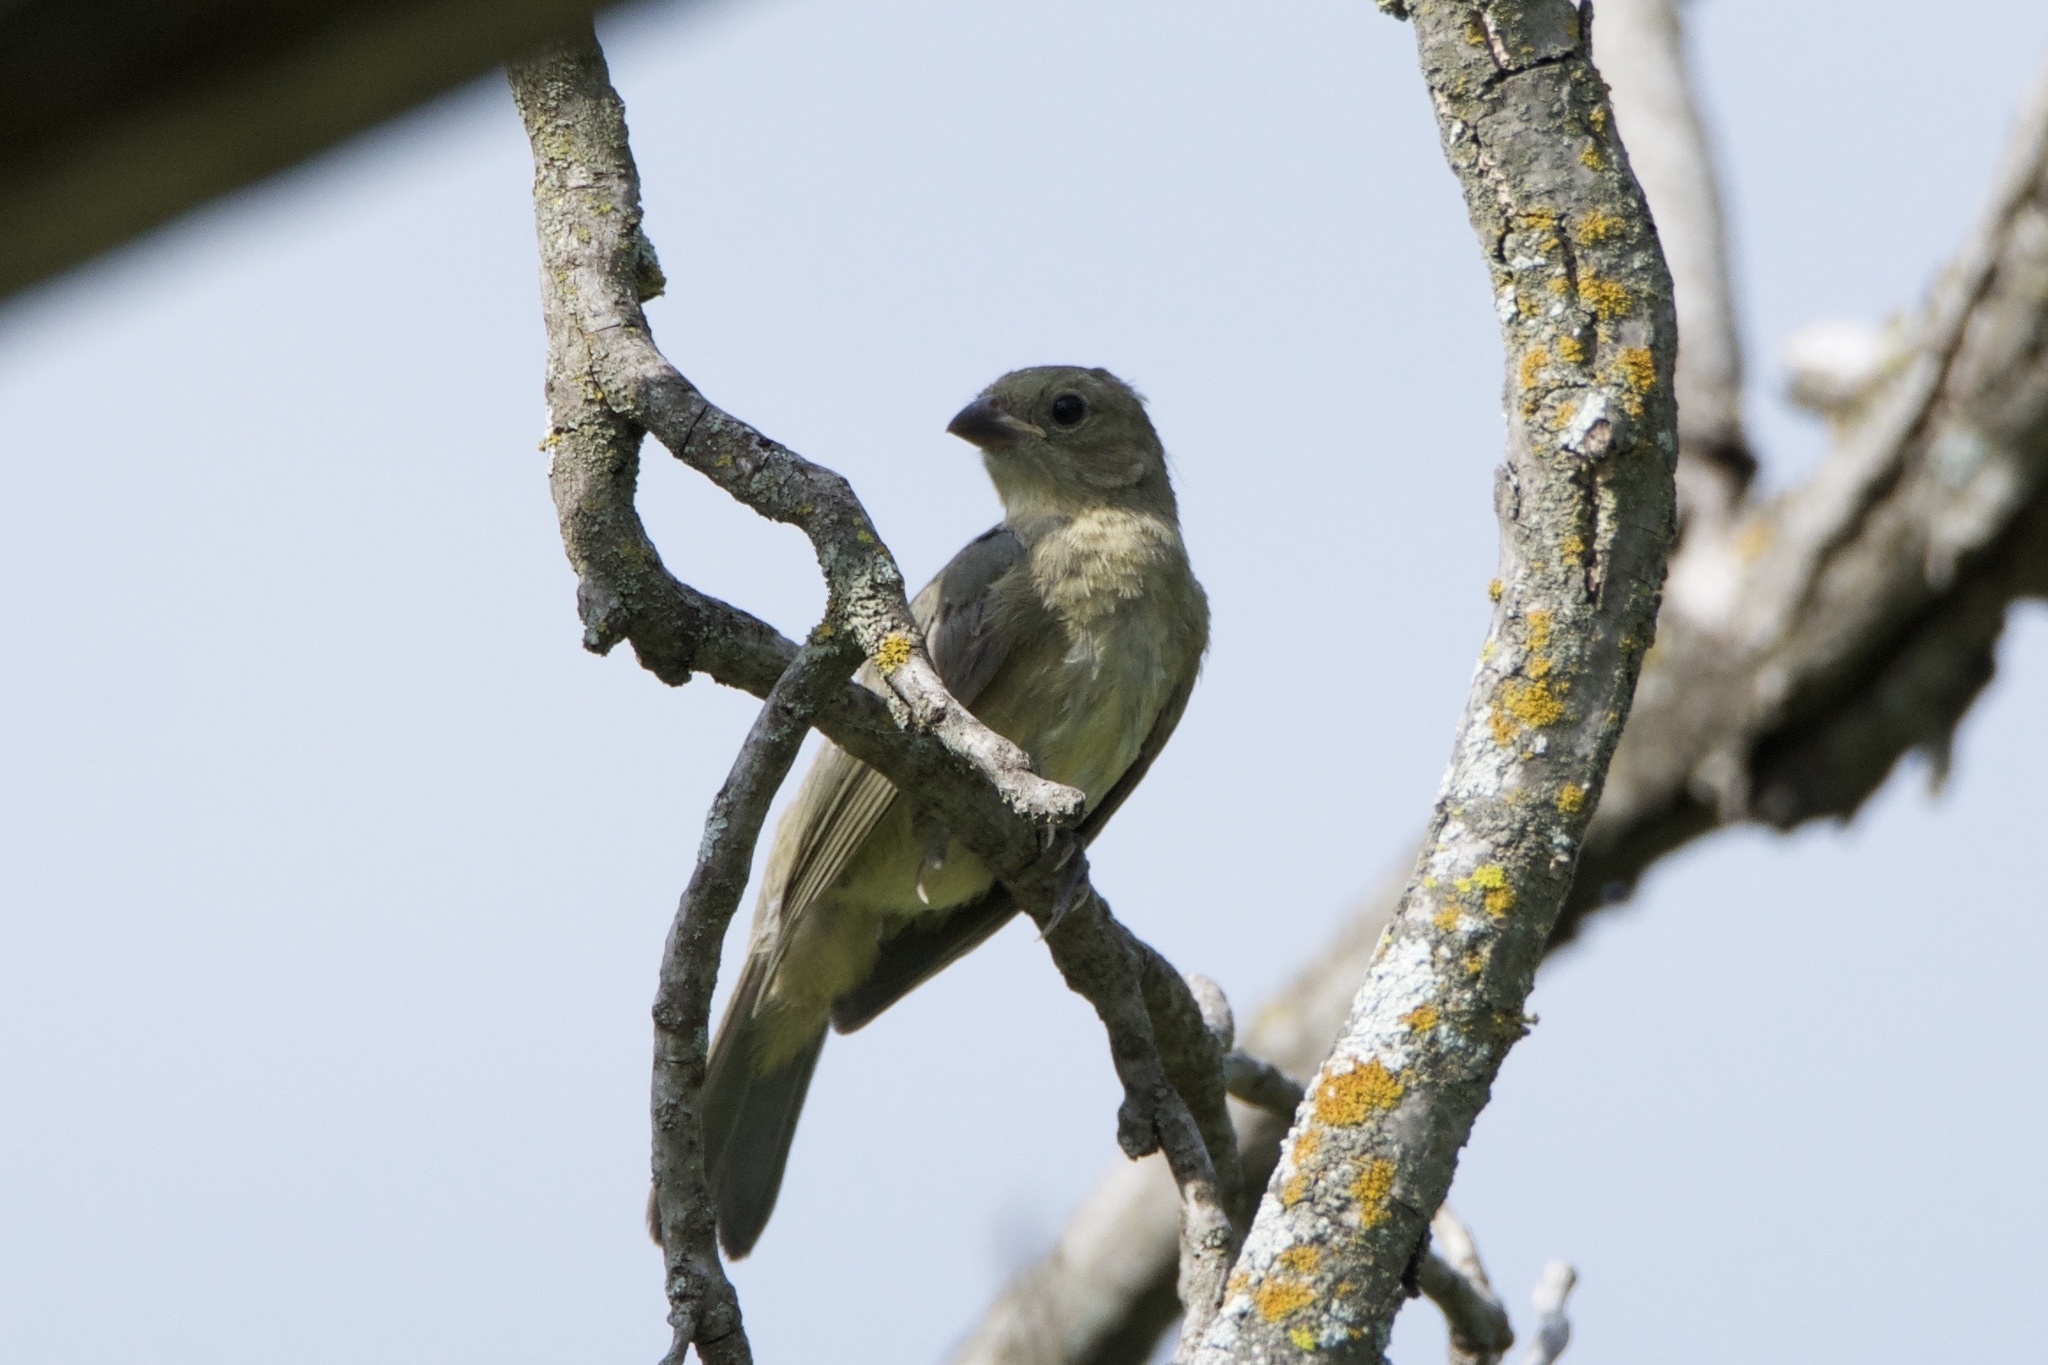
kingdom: Animalia
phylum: Chordata
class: Aves
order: Passeriformes
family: Cardinalidae
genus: Passerina
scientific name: Passerina ciris
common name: Painted bunting
